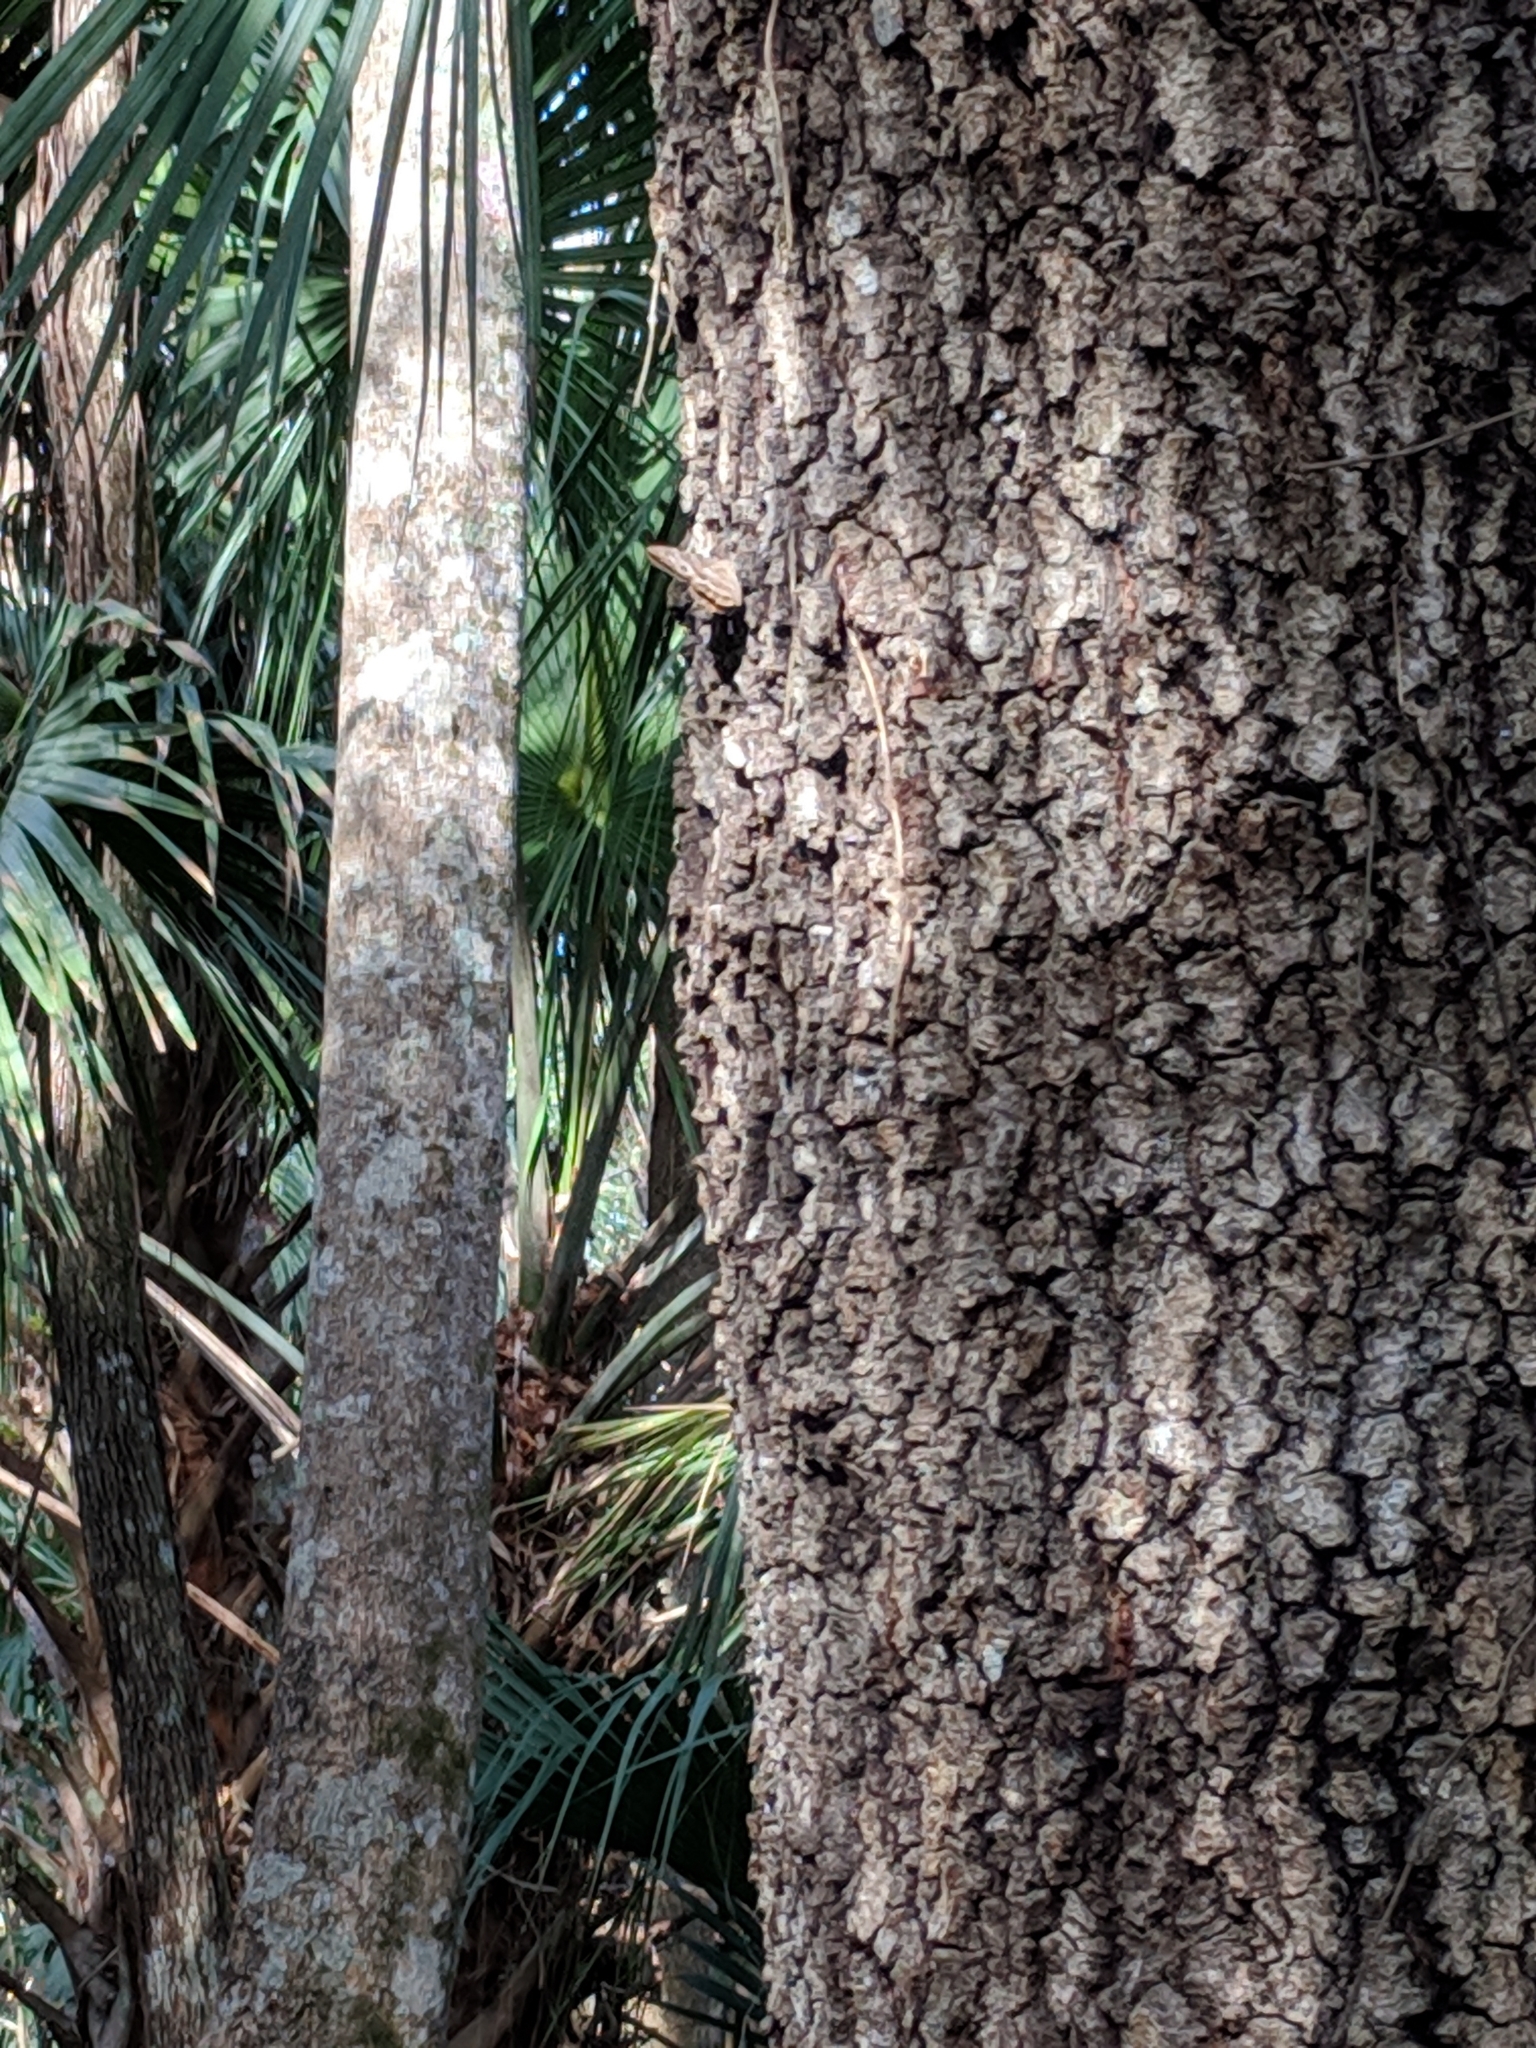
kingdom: Animalia
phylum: Arthropoda
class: Insecta
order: Lepidoptera
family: Nymphalidae
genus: Enodia
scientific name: Enodia portlandia
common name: Southern pearly-eye
